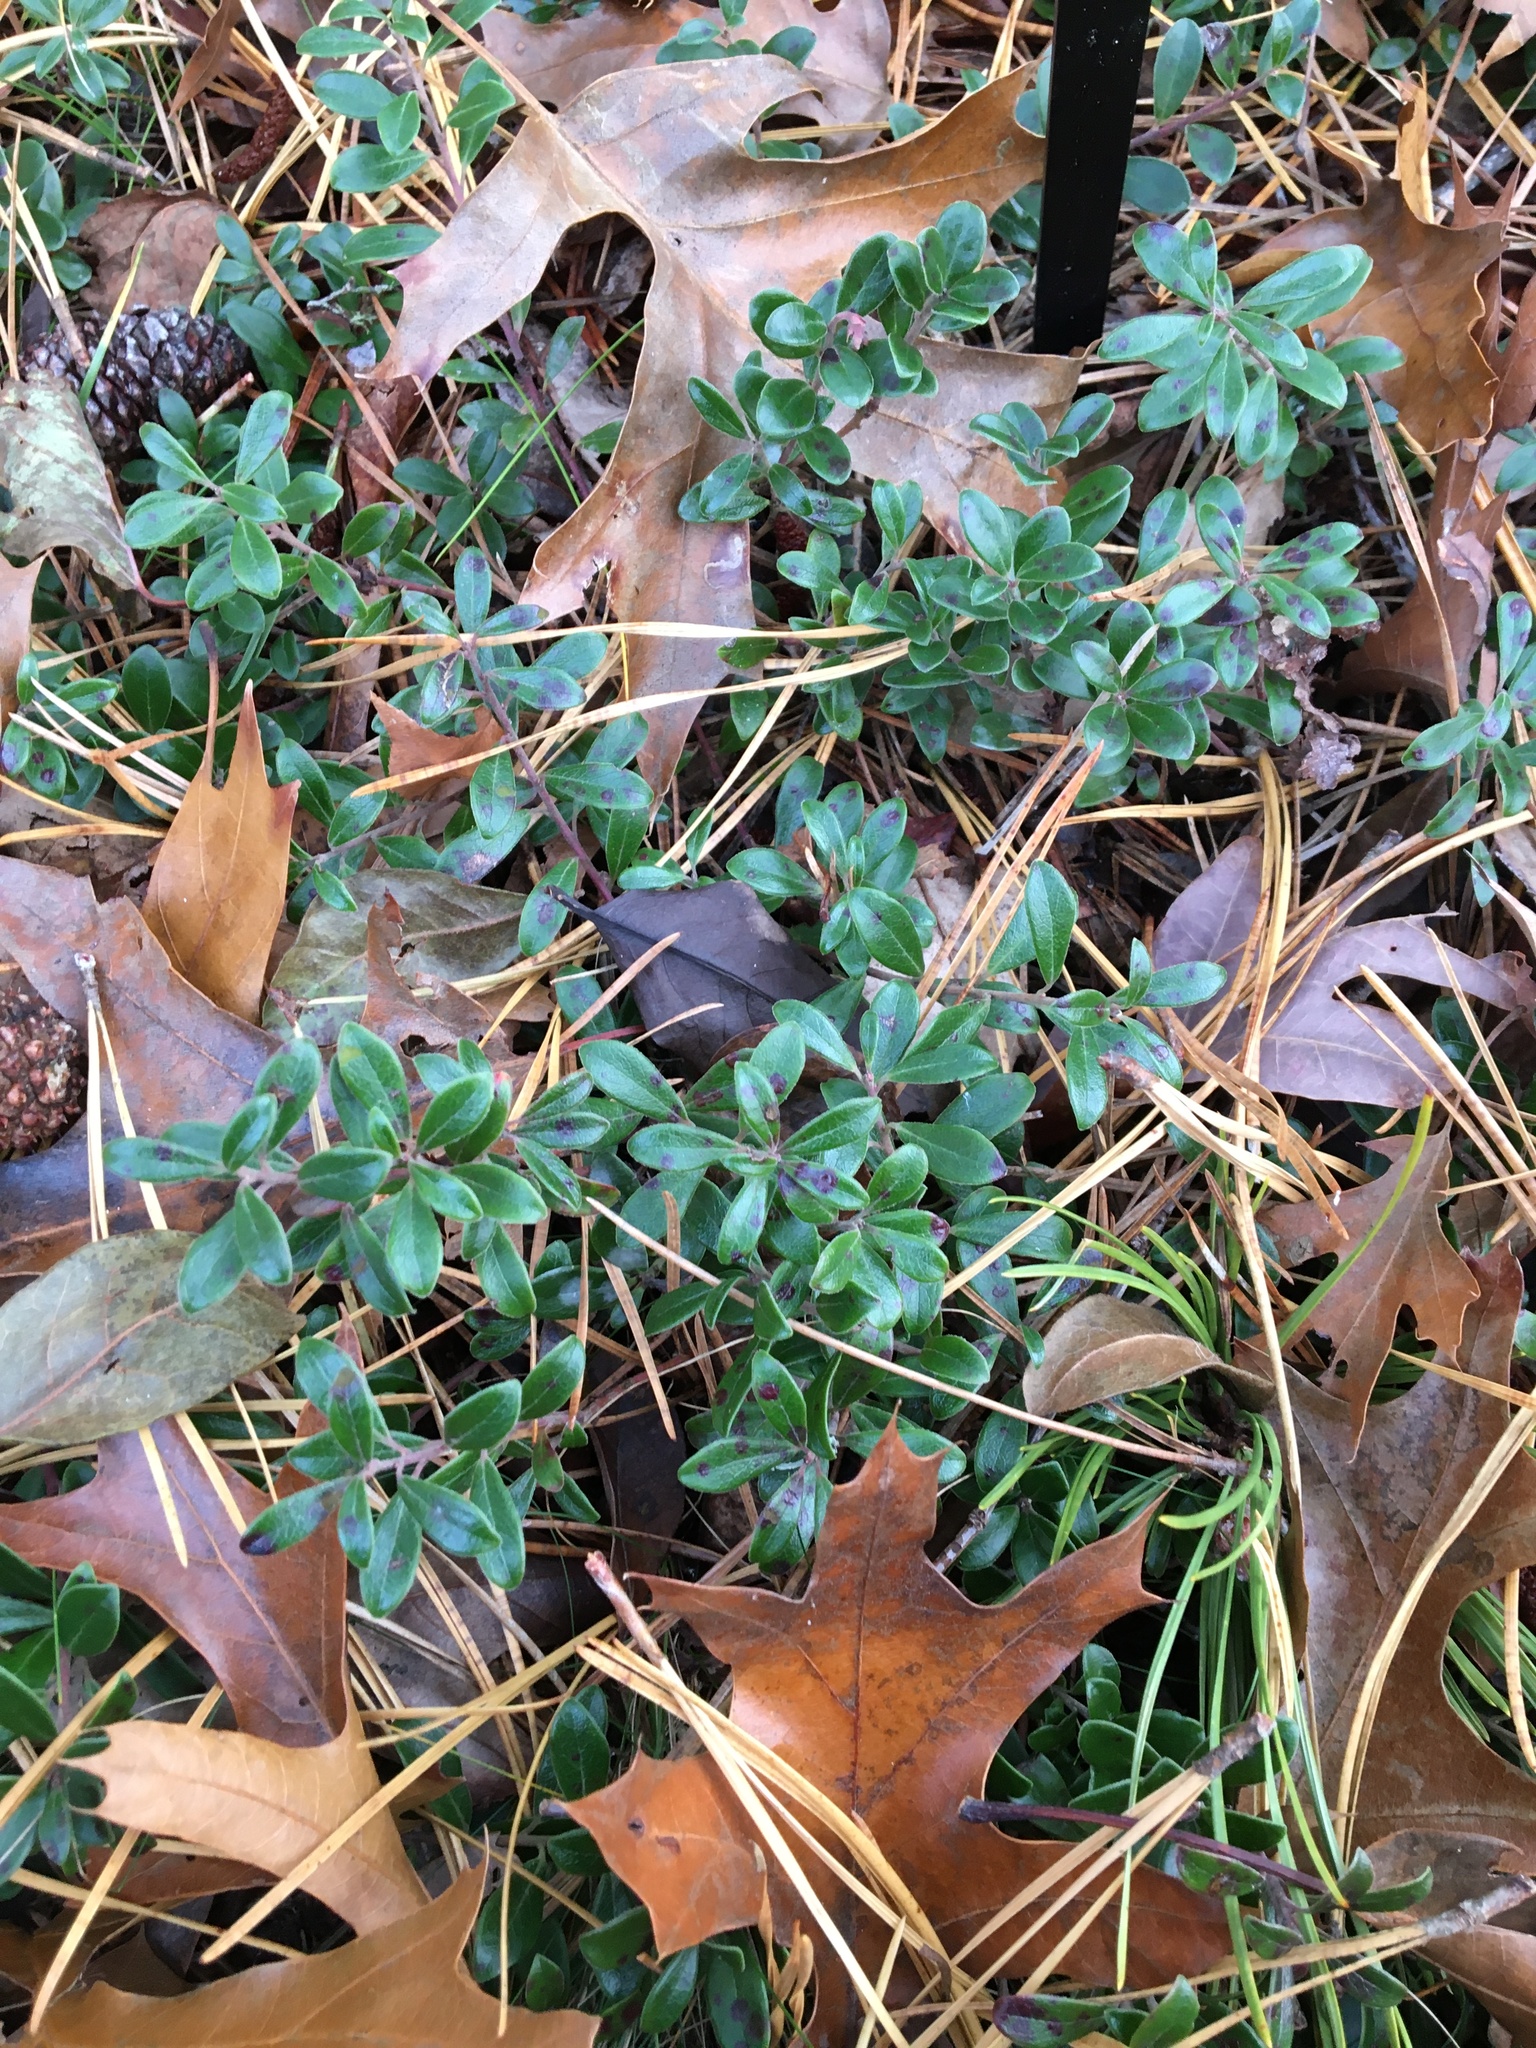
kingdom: Plantae
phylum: Tracheophyta
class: Magnoliopsida
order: Ericales
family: Ericaceae
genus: Arctostaphylos
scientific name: Arctostaphylos uva-ursi
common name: Bearberry
